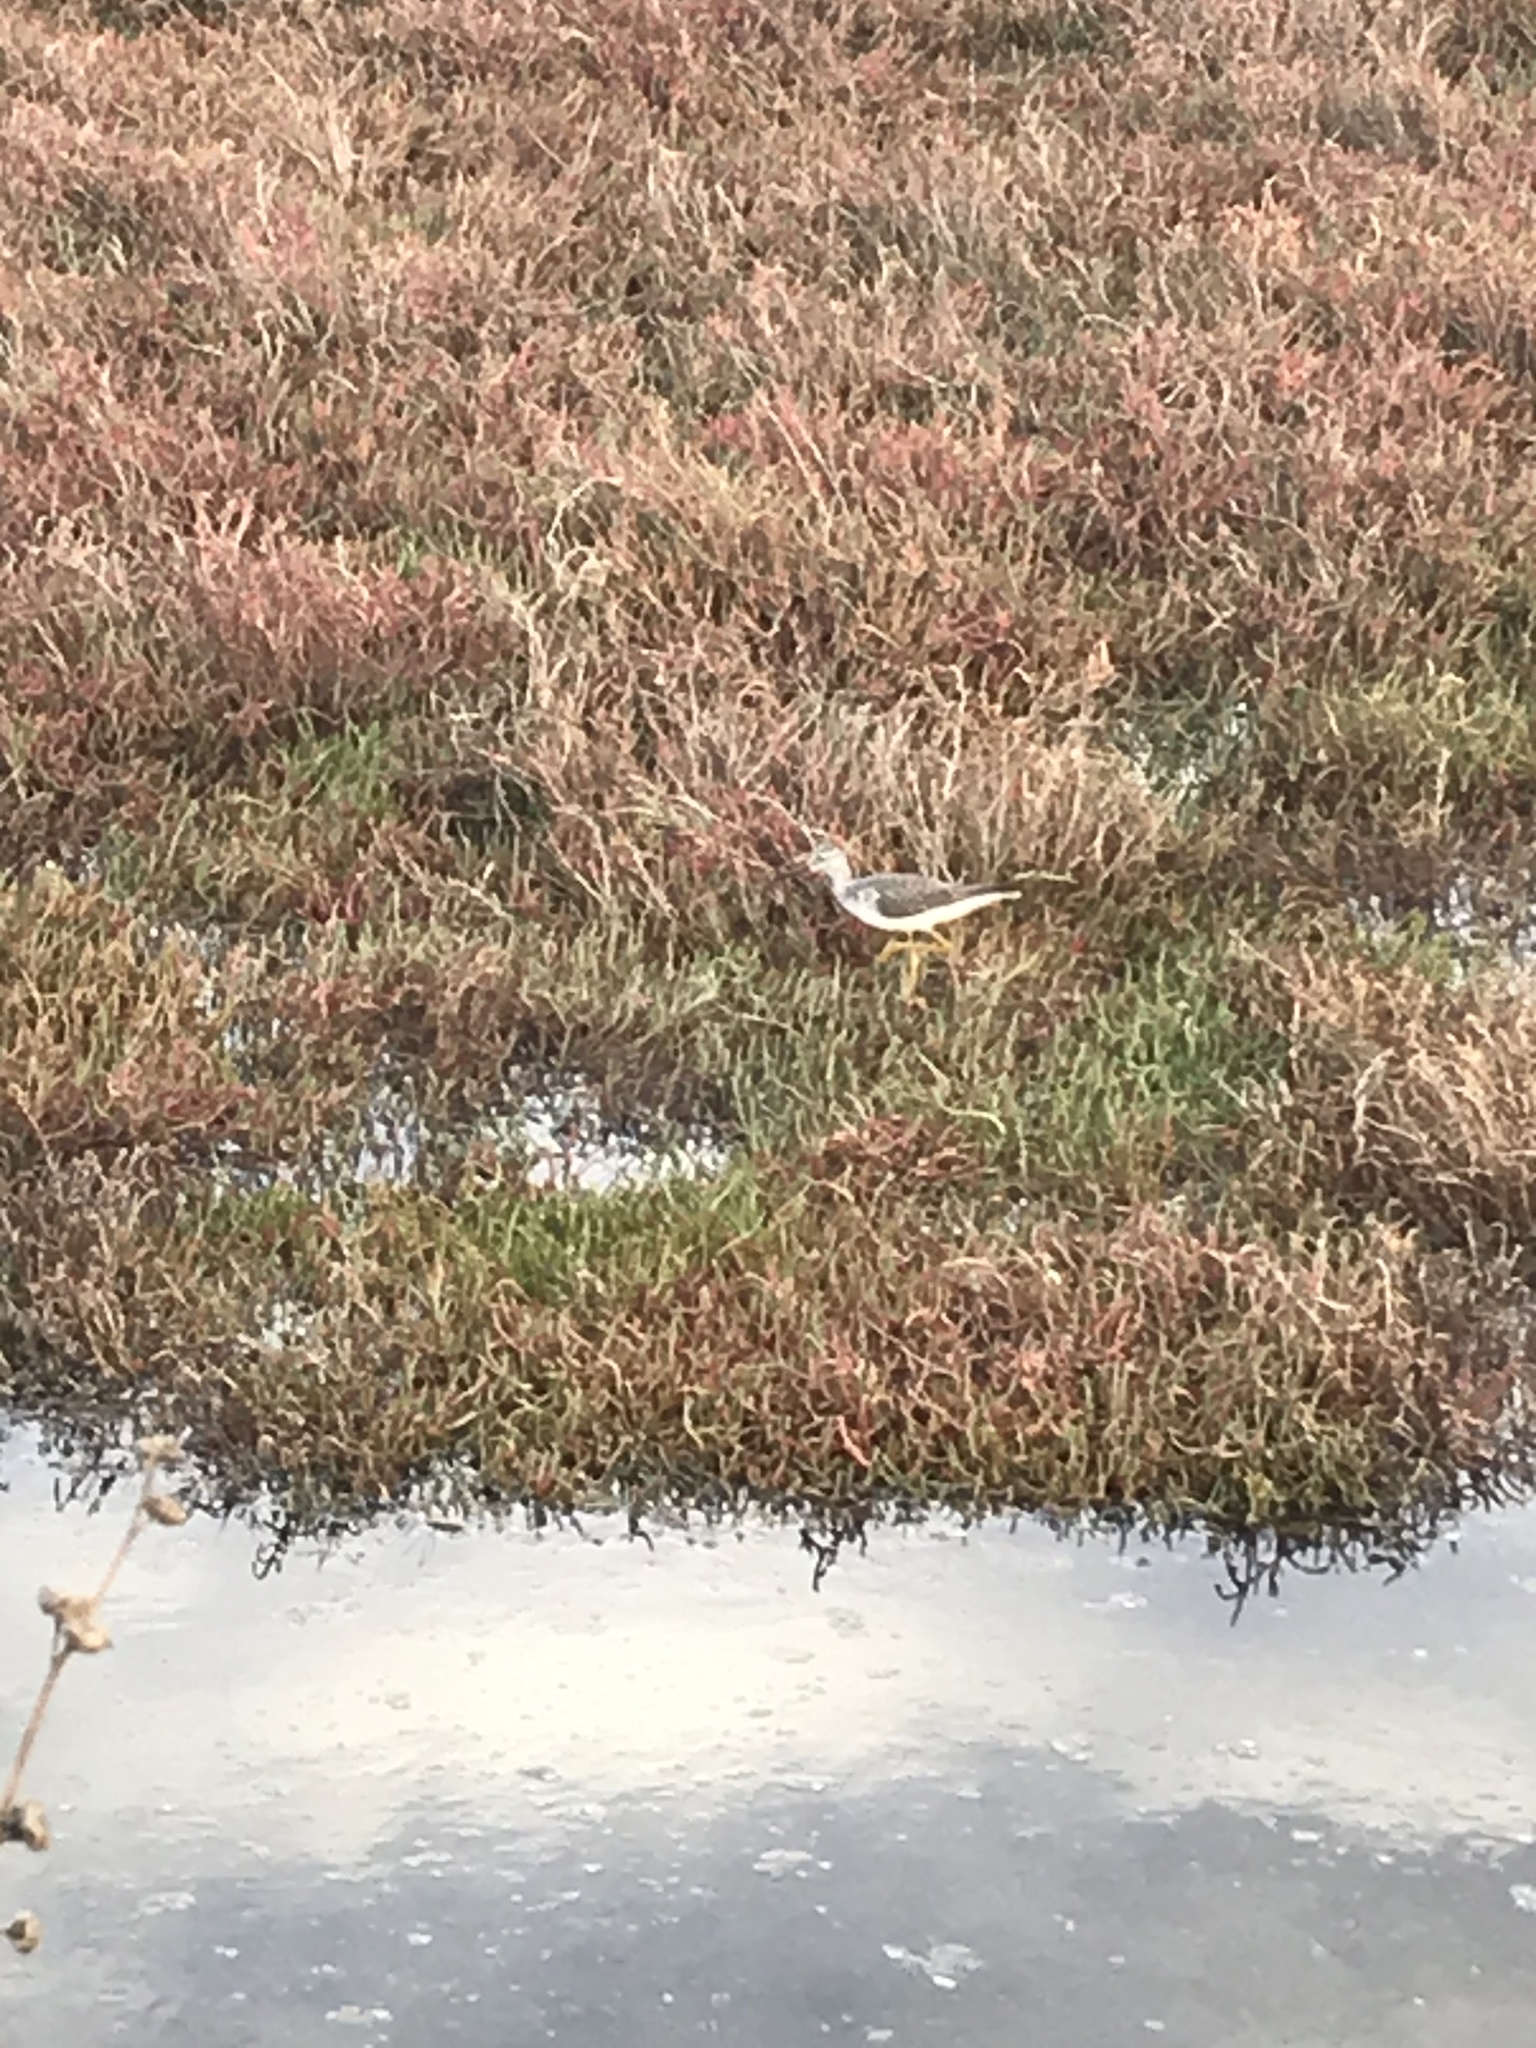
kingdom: Animalia
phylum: Chordata
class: Aves
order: Charadriiformes
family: Scolopacidae
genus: Tringa
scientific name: Tringa
